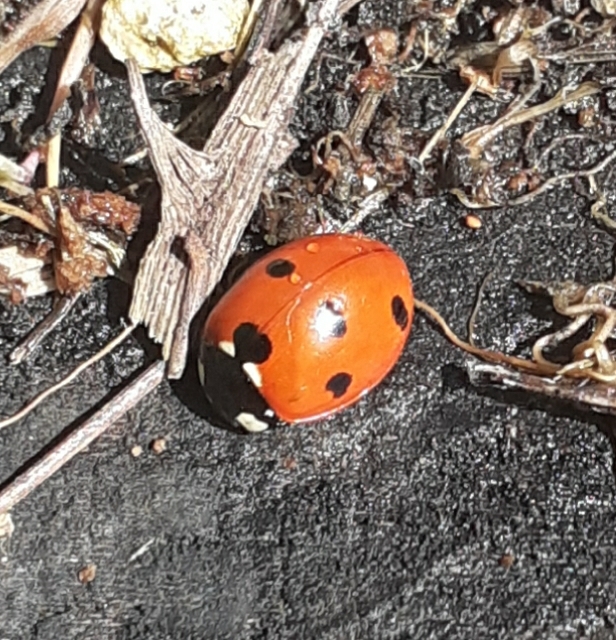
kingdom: Animalia
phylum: Arthropoda
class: Insecta
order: Coleoptera
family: Coccinellidae
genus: Coccinella
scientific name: Coccinella septempunctata
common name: Sevenspotted lady beetle
